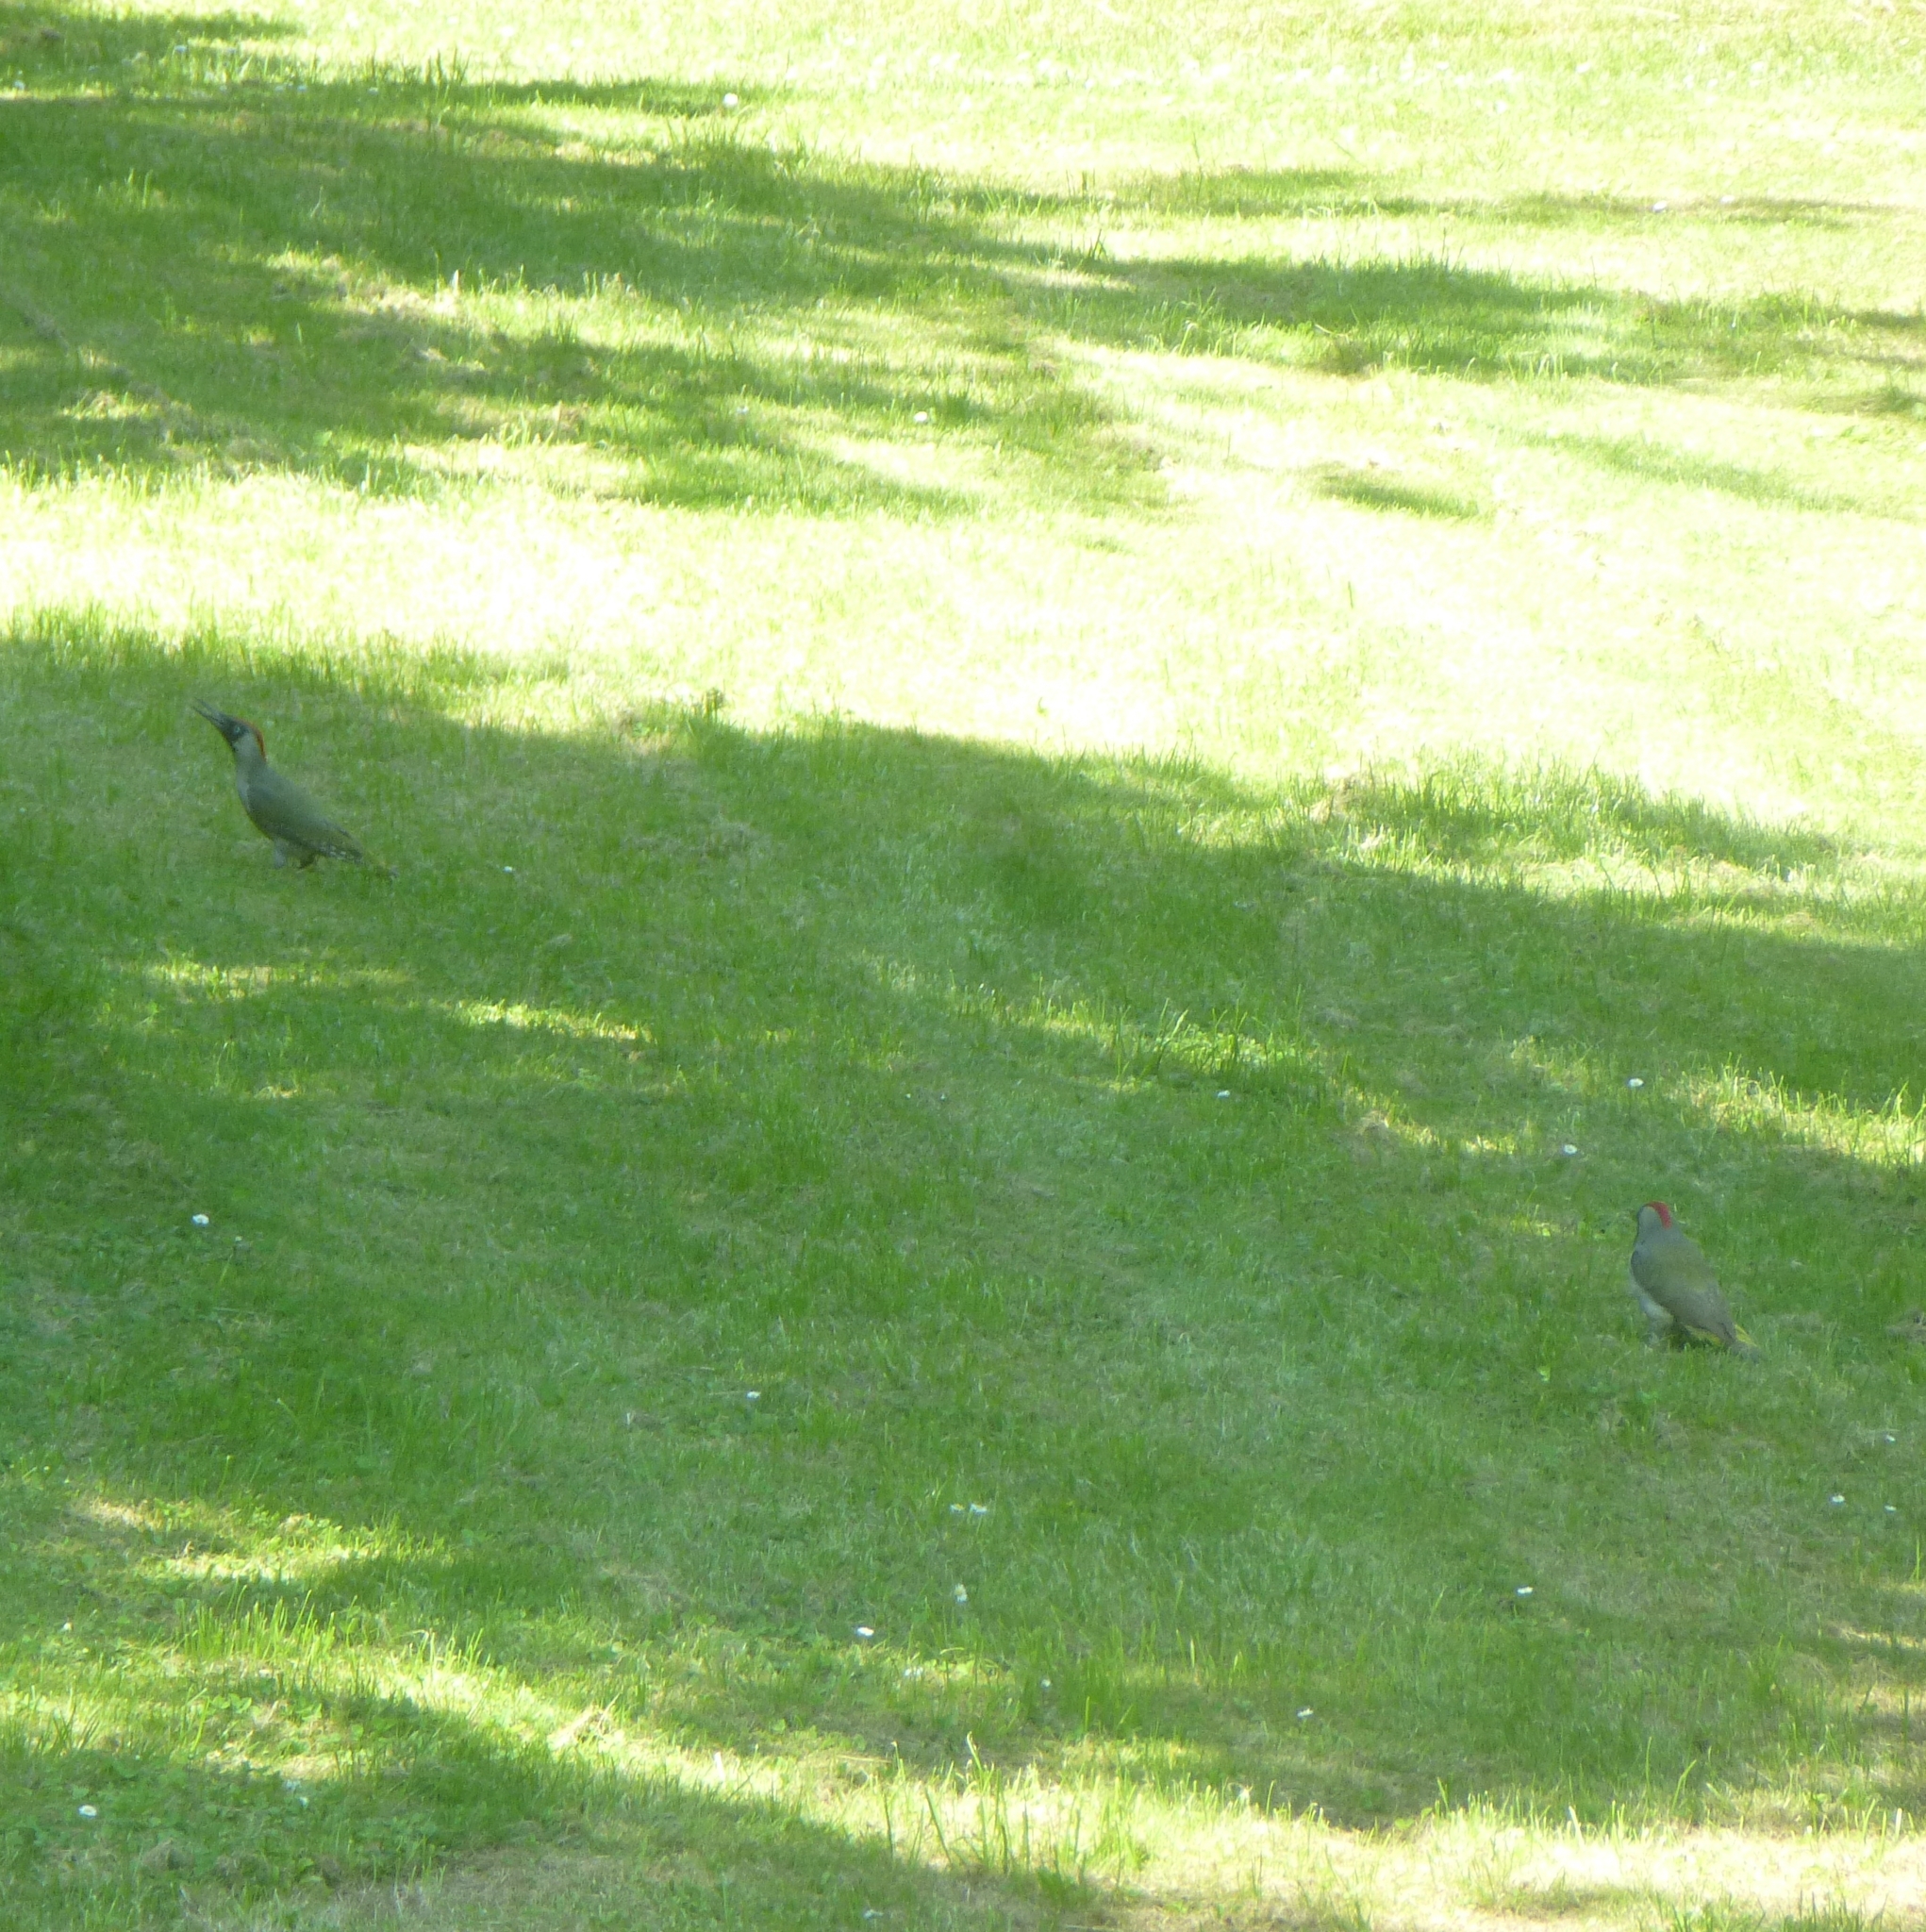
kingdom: Animalia
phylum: Chordata
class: Aves
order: Piciformes
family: Picidae
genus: Picus
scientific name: Picus viridis
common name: European green woodpecker
